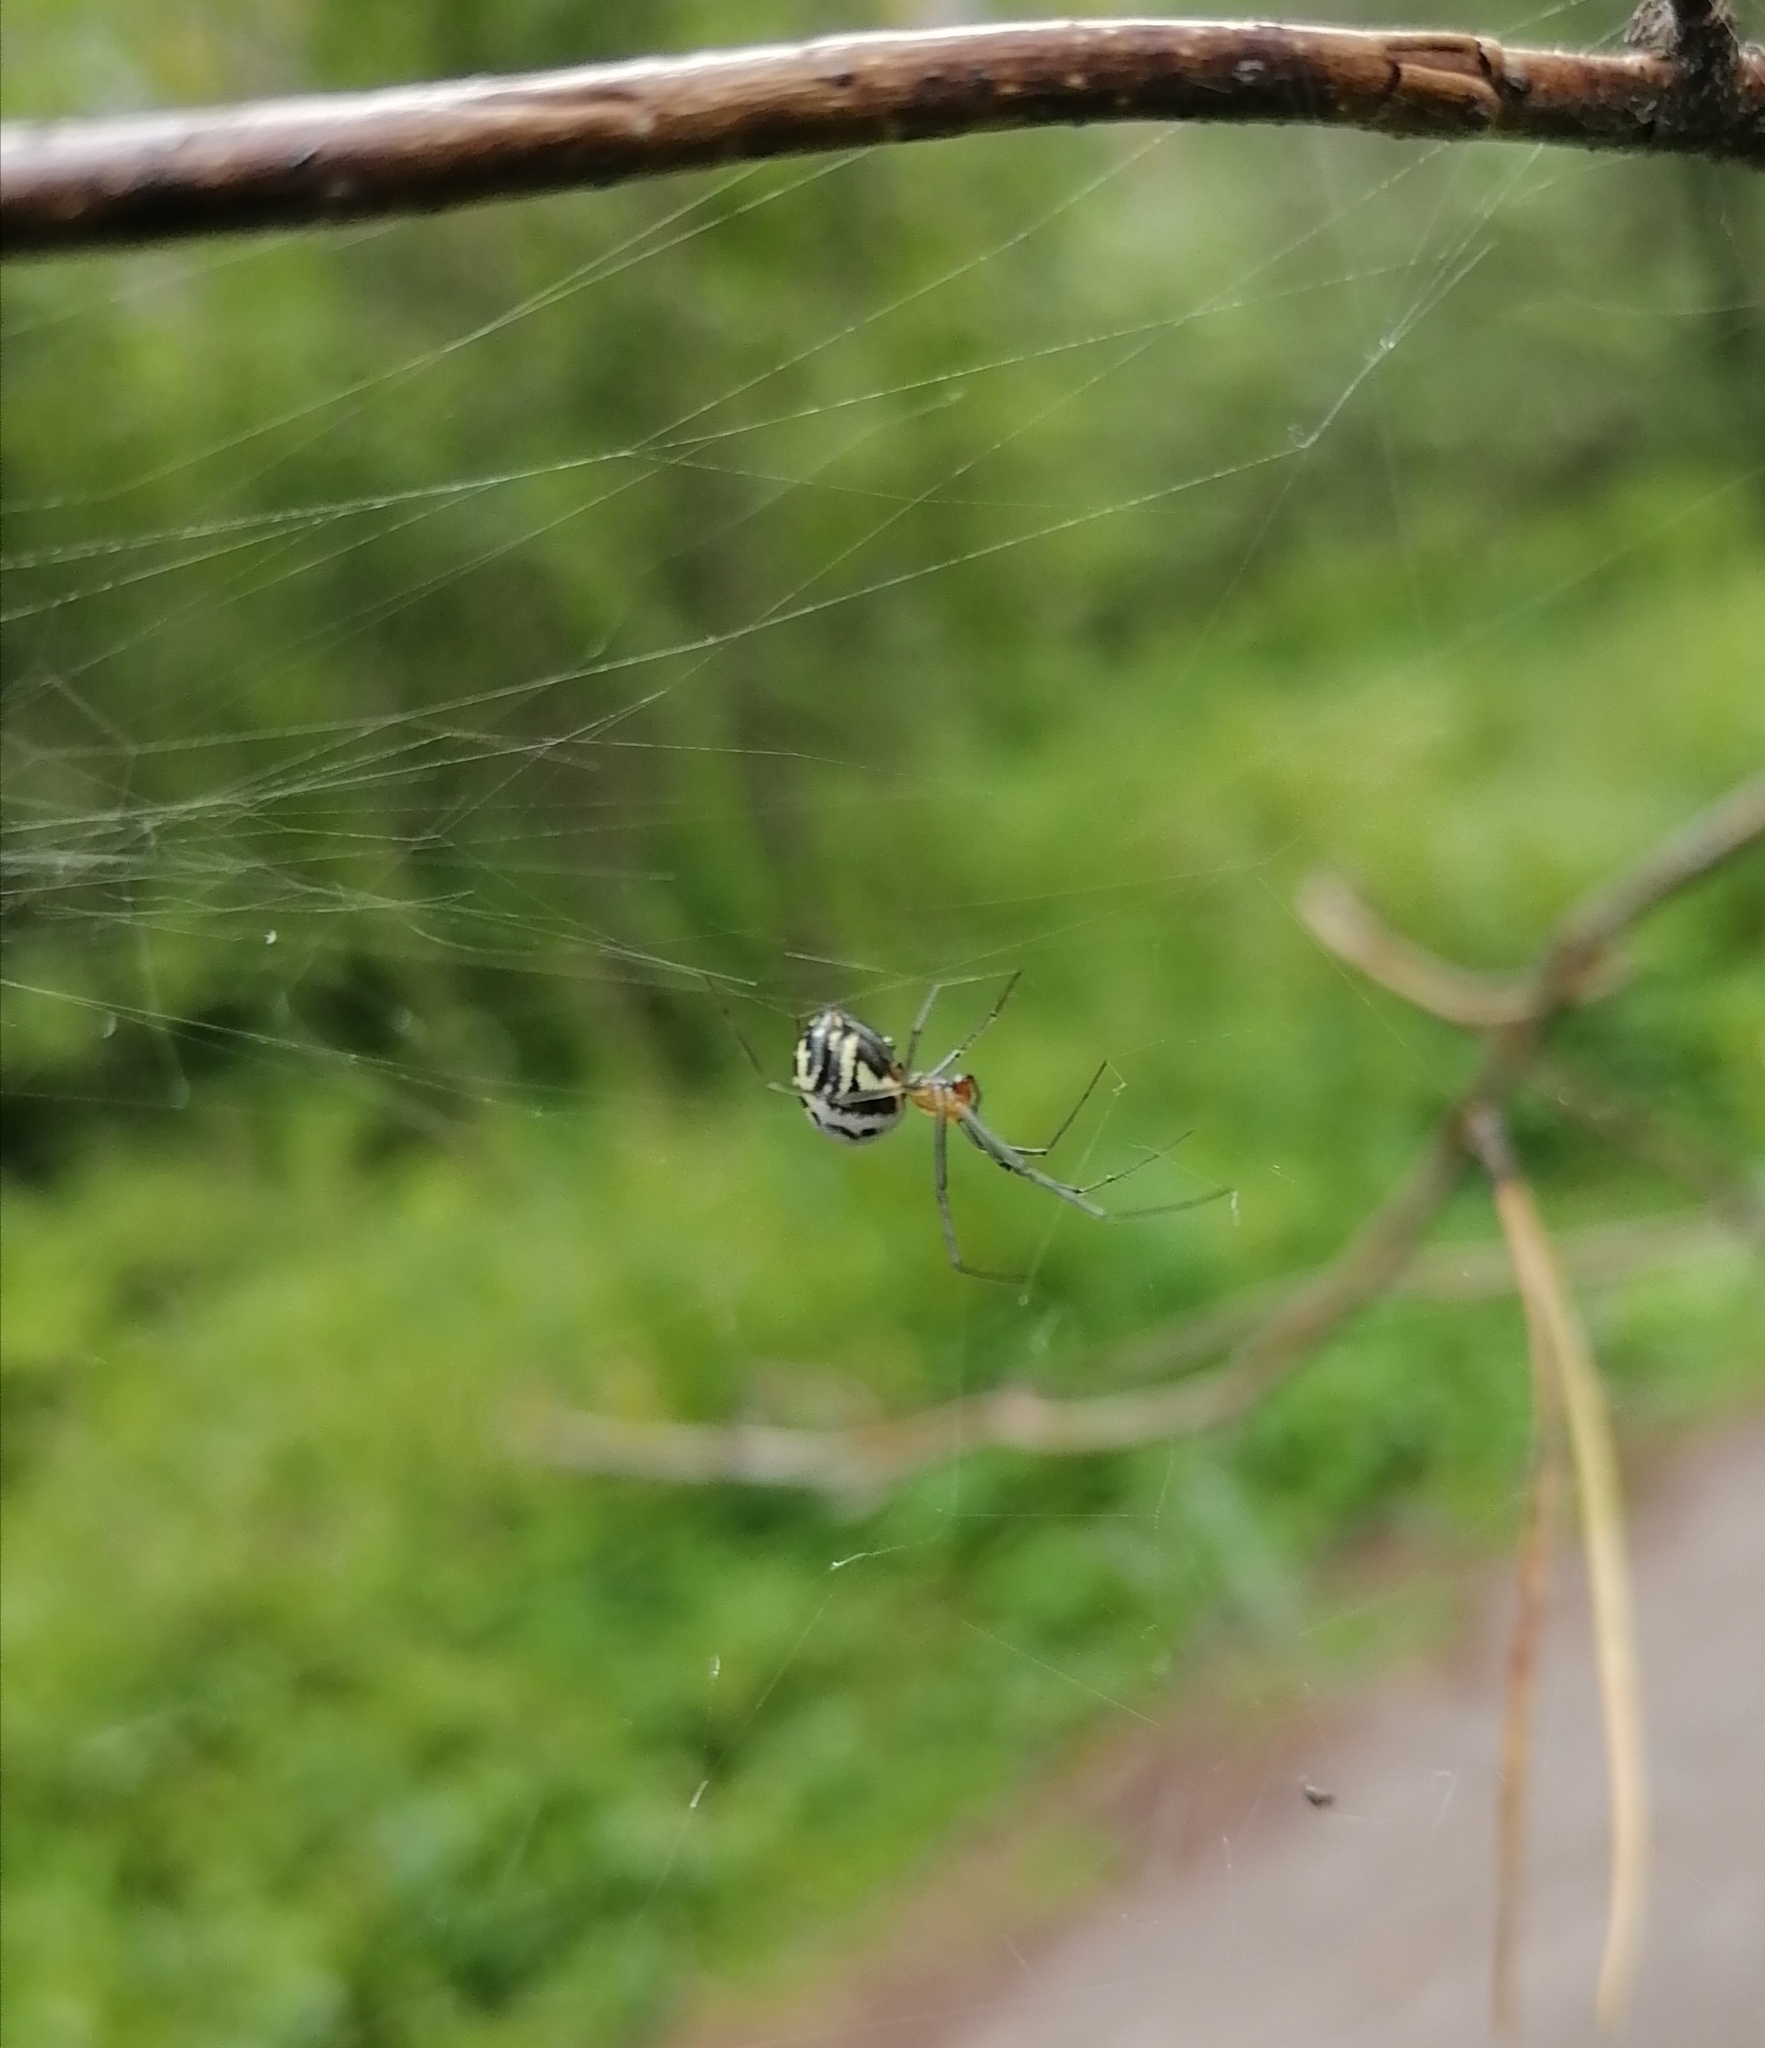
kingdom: Animalia
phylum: Arthropoda
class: Arachnida
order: Araneae
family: Linyphiidae
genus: Neriene
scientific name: Neriene radiata
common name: Filmy dome spider
